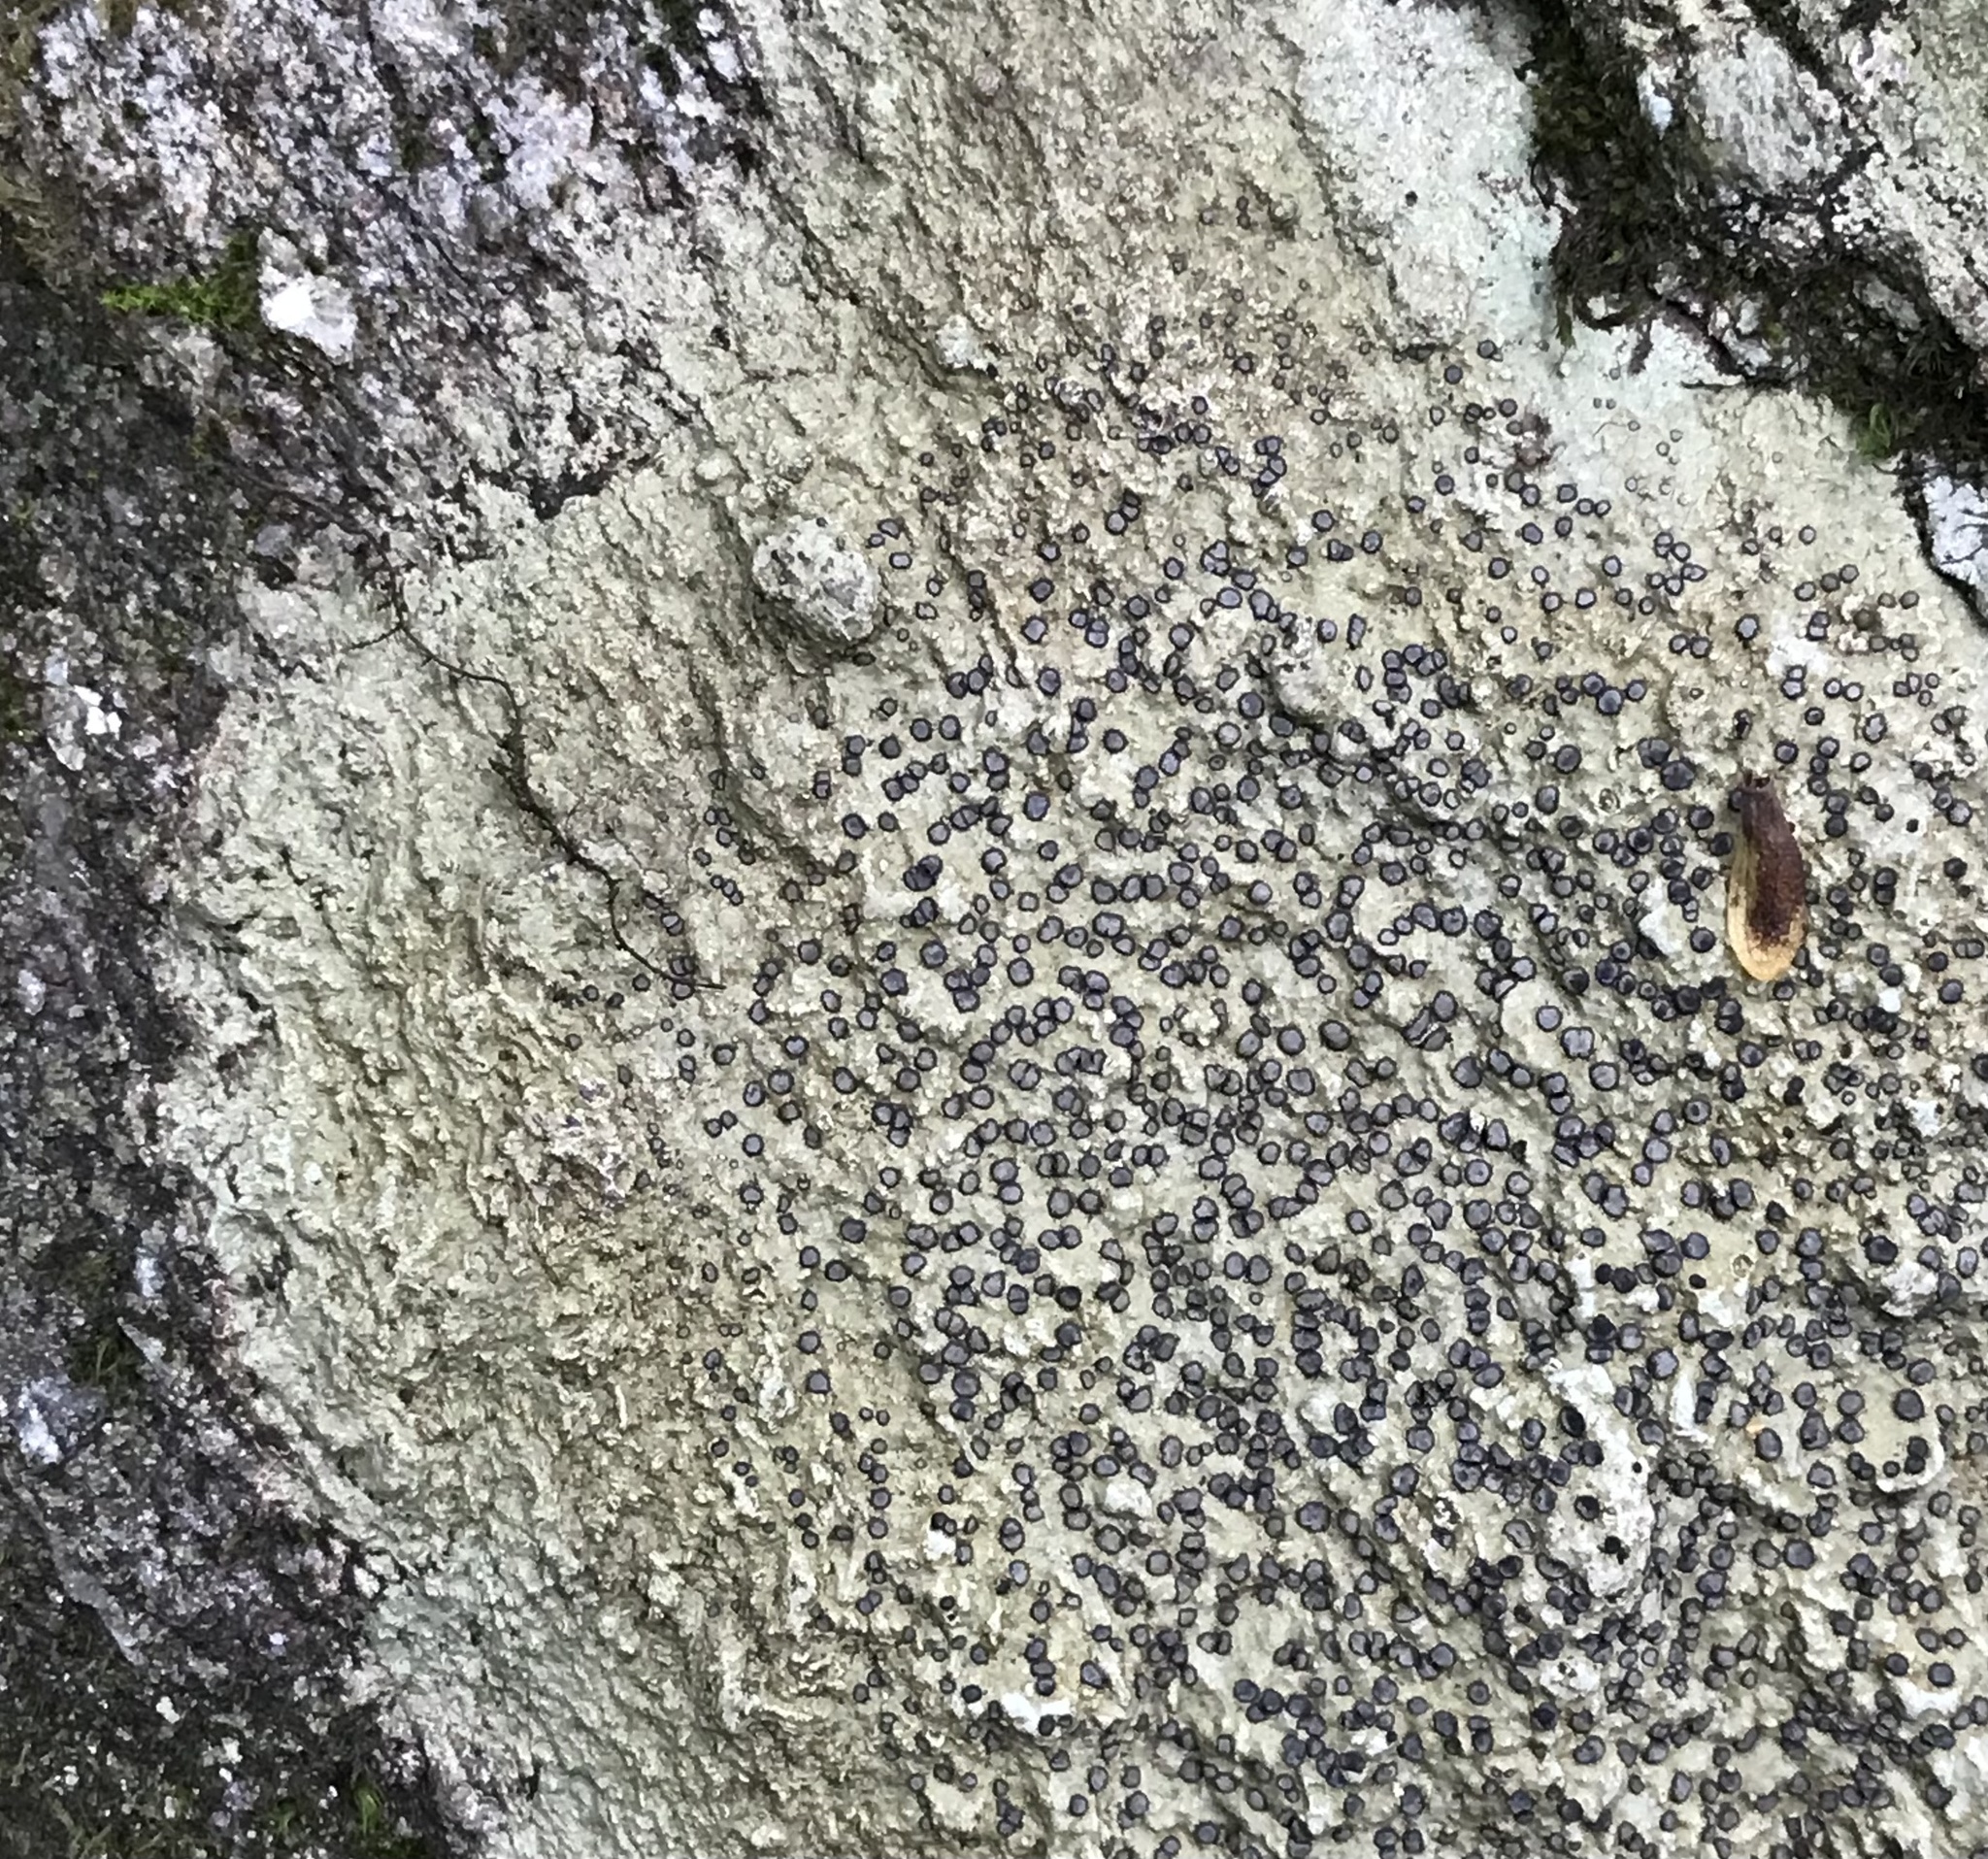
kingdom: Fungi
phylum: Ascomycota
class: Lecanoromycetes
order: Lecideales
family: Lecideaceae
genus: Porpidia
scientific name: Porpidia albocaerulescens
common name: Smokey-eyed boulder lichen
